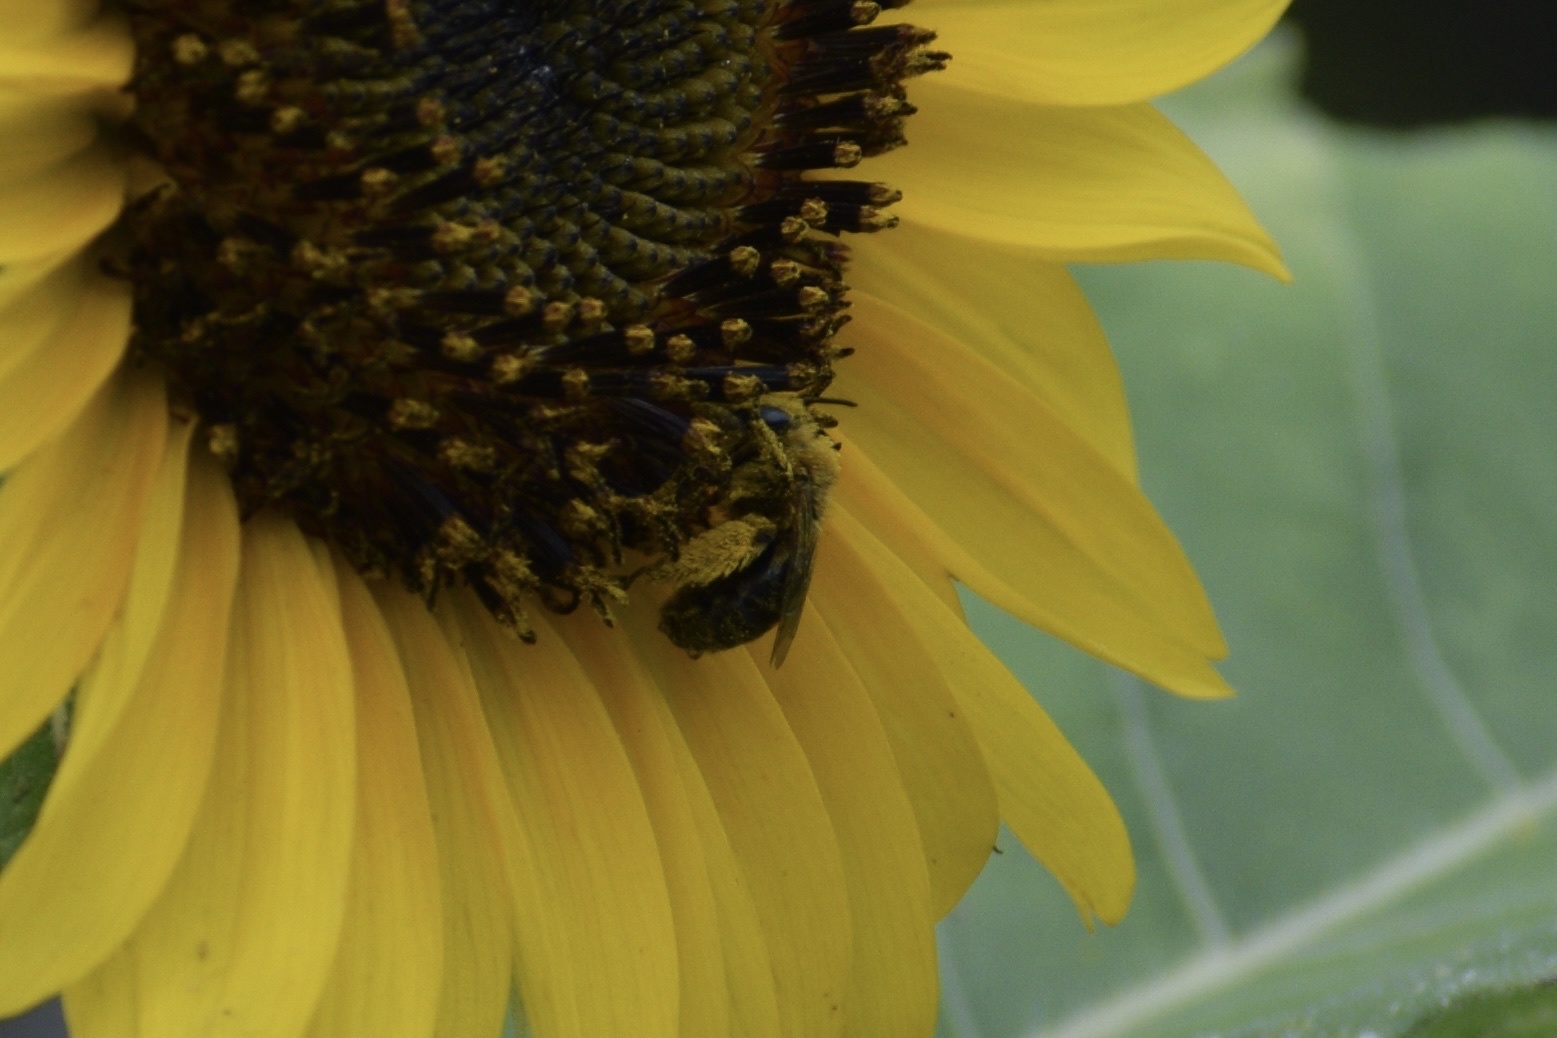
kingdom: Animalia
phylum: Arthropoda
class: Insecta
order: Hymenoptera
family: Apidae
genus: Melissodes
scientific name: Melissodes trinodis
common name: Dark-veined longhorn
